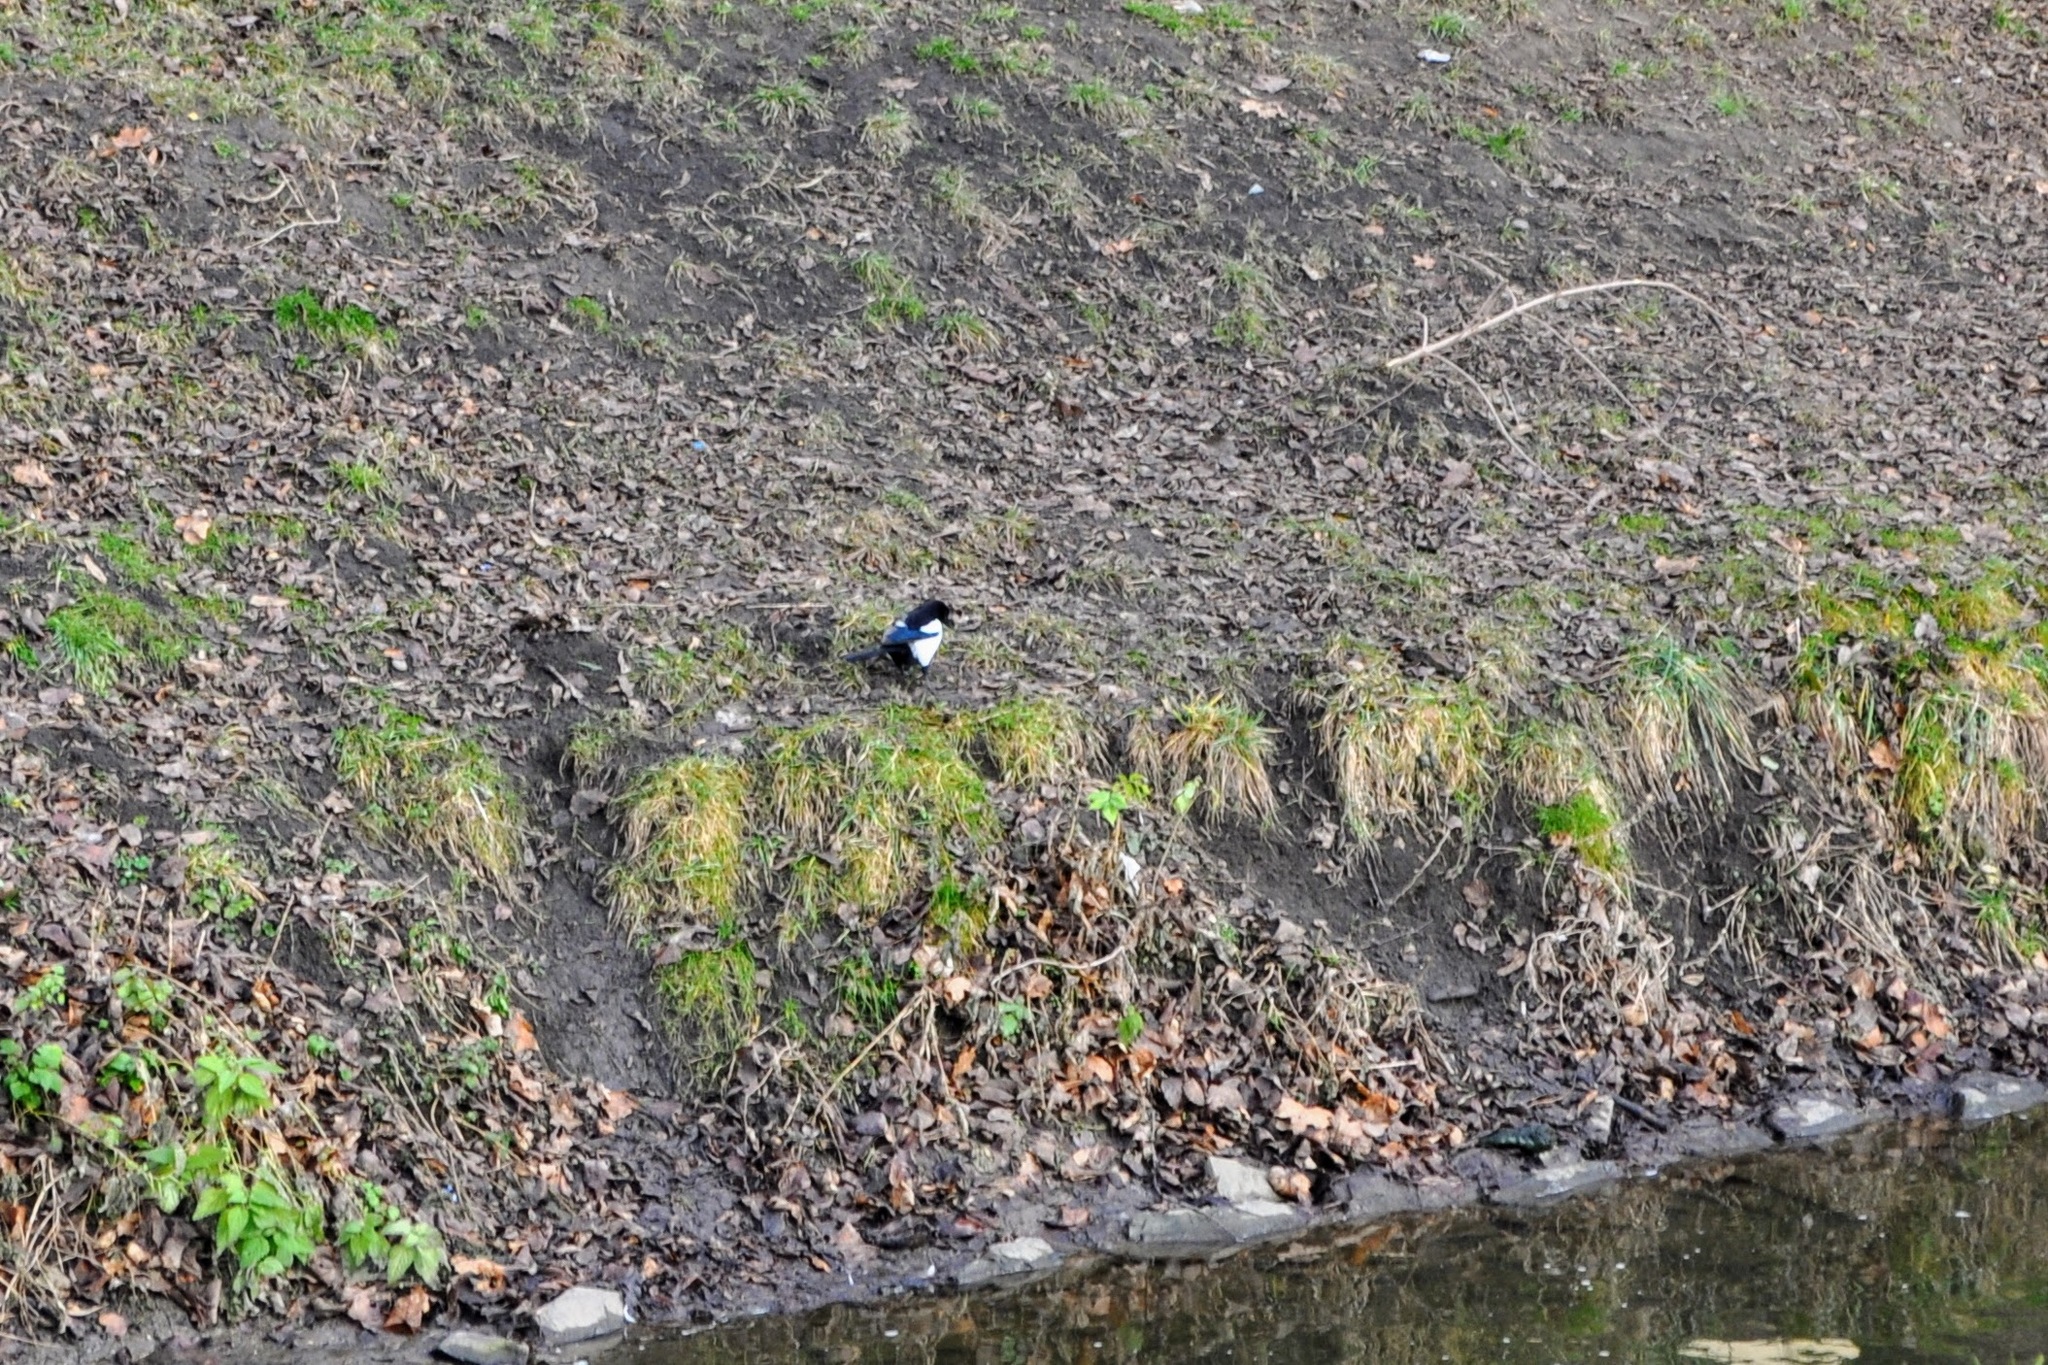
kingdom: Animalia
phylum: Chordata
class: Aves
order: Passeriformes
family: Corvidae
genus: Pica
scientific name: Pica pica
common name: Eurasian magpie
